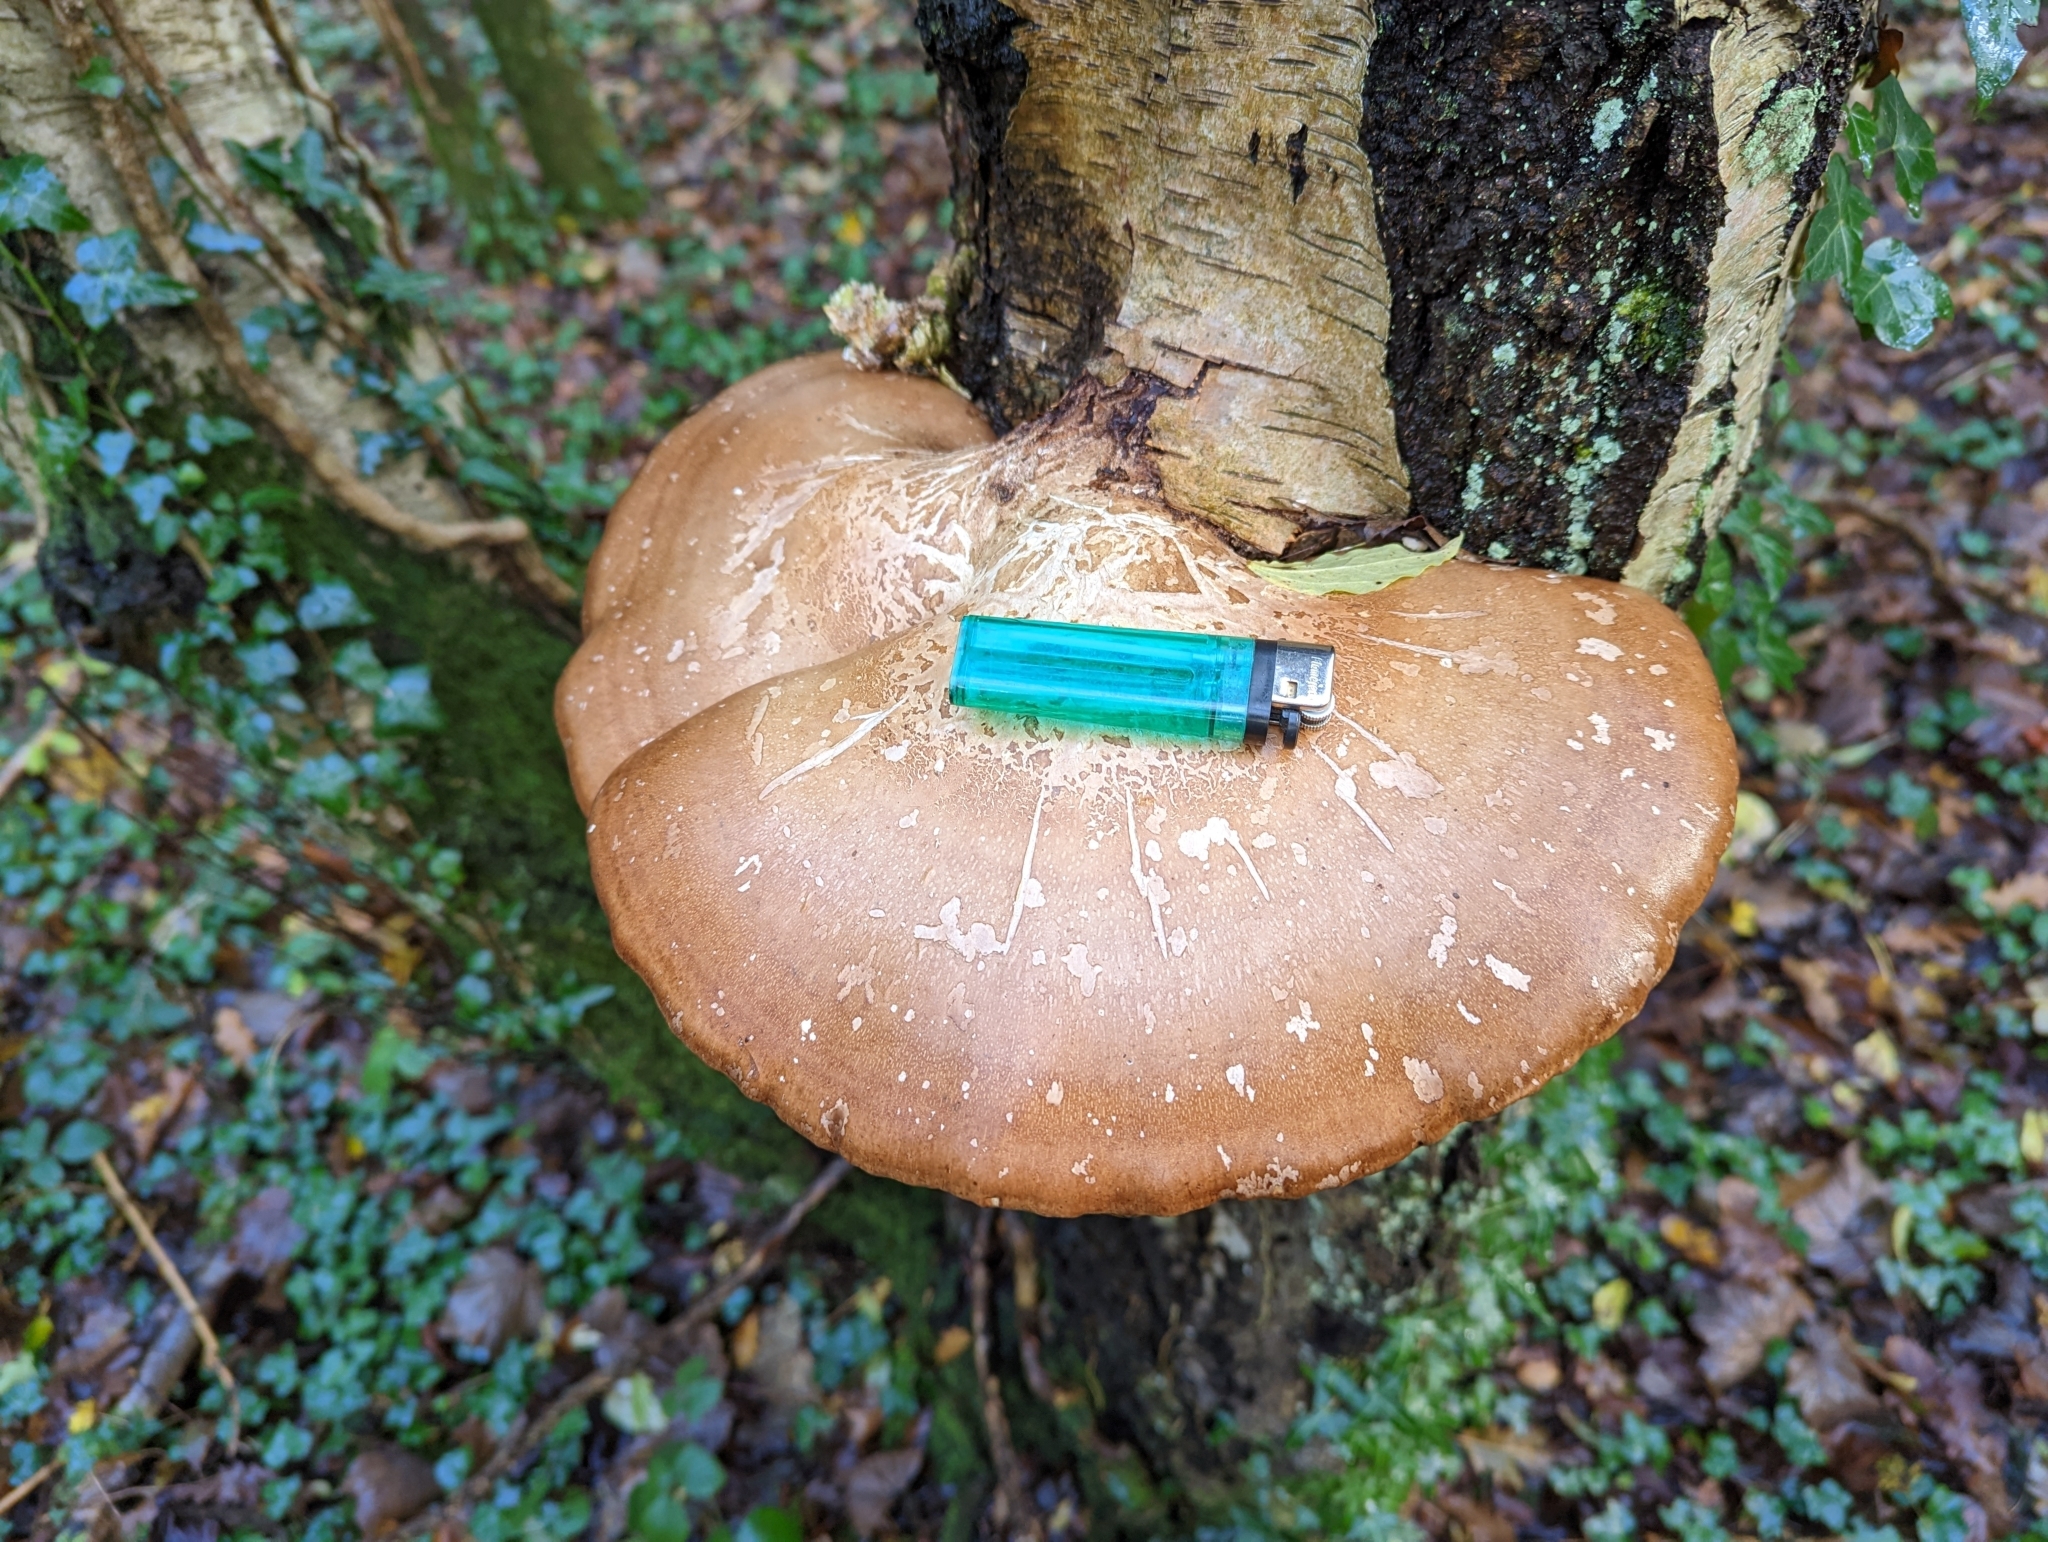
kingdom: Fungi
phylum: Basidiomycota
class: Agaricomycetes
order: Polyporales
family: Fomitopsidaceae
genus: Fomitopsis
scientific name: Fomitopsis betulina
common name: Birch polypore
